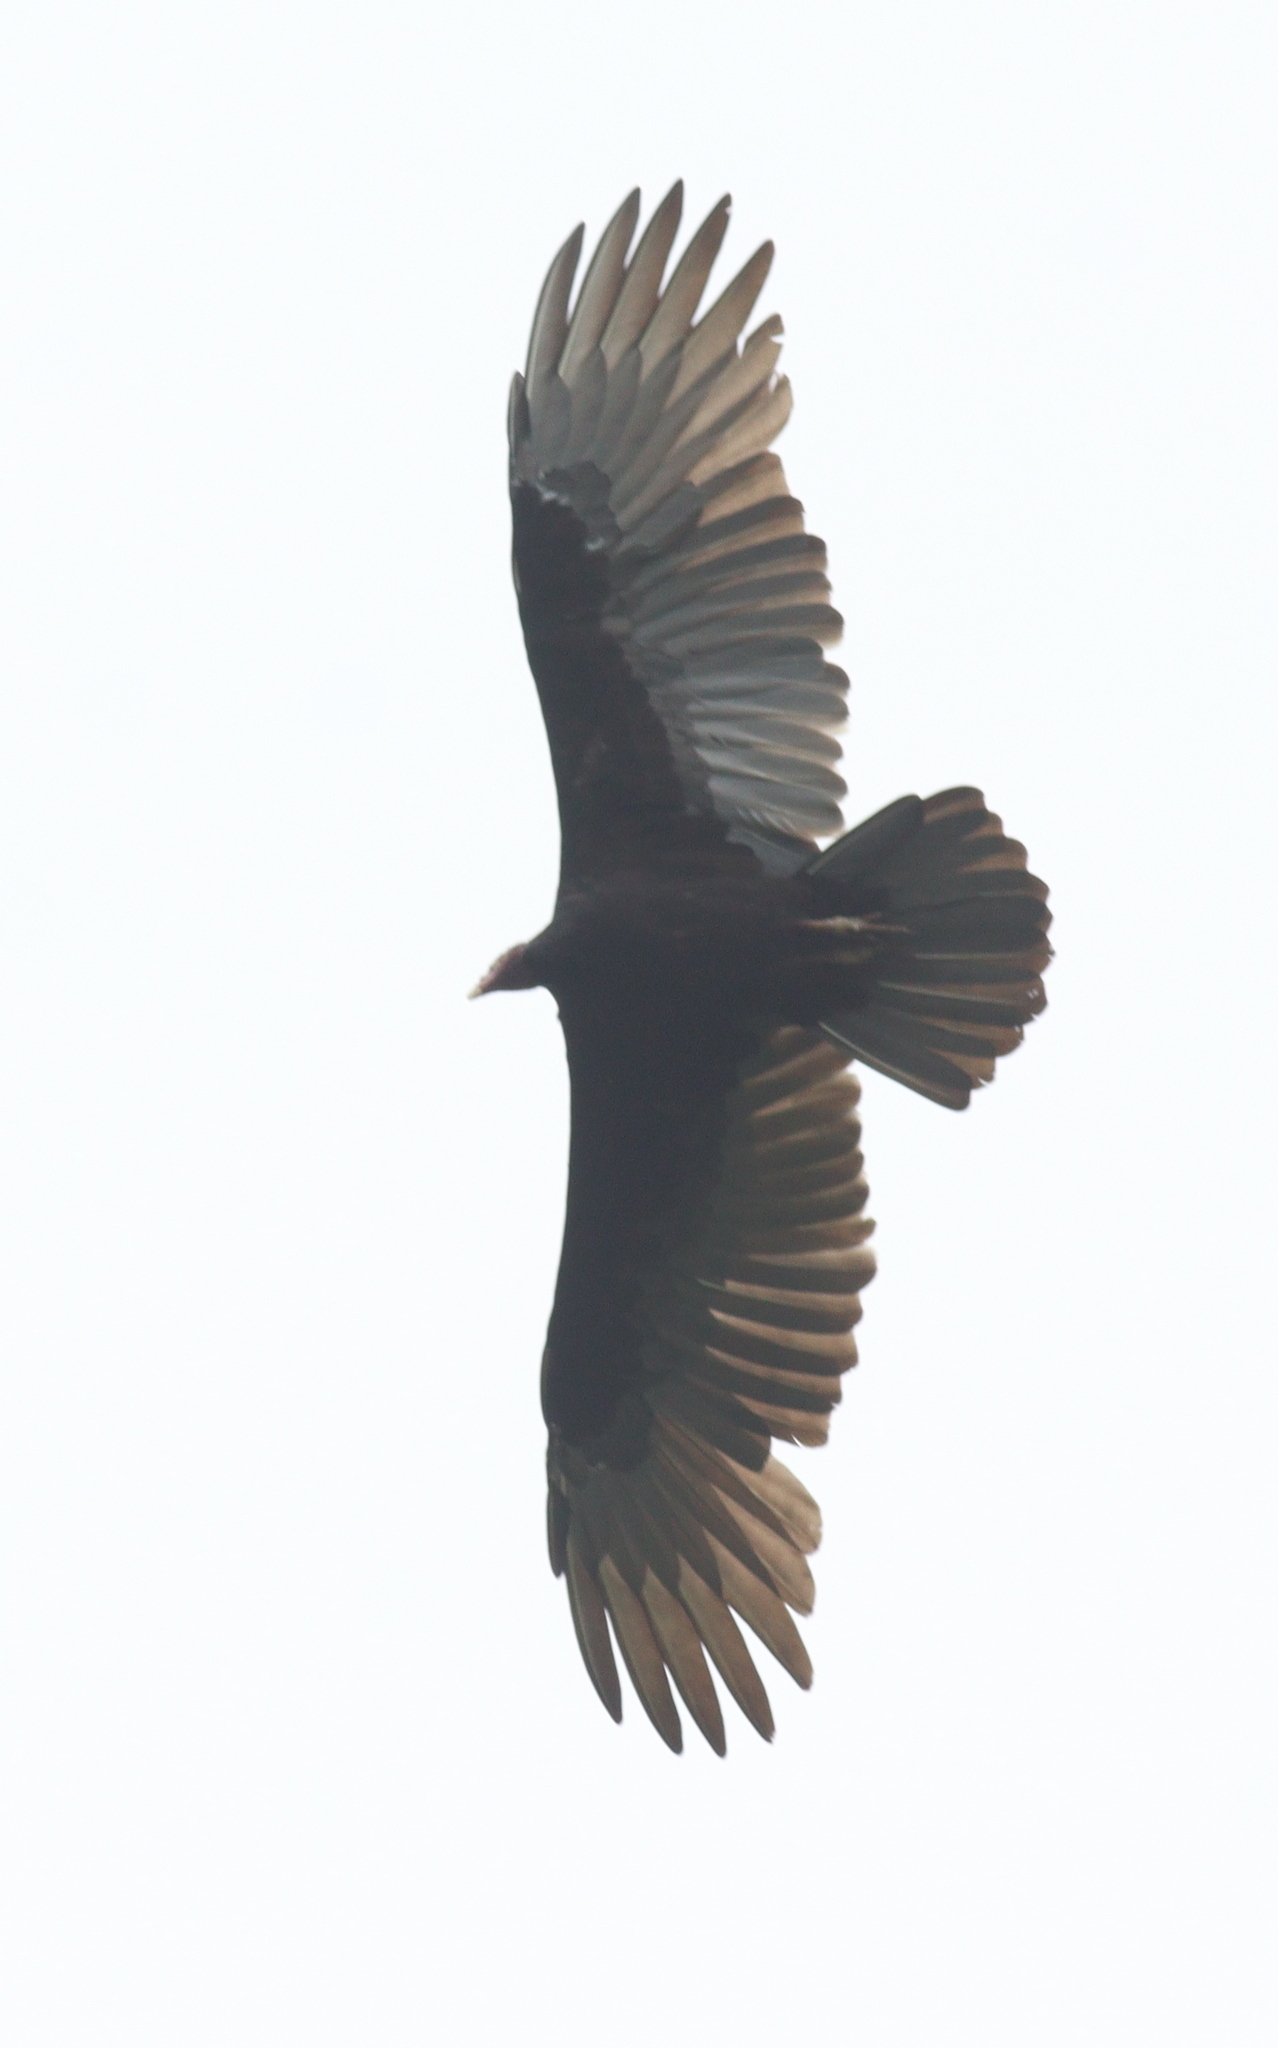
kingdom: Animalia
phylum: Chordata
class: Aves
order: Accipitriformes
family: Cathartidae
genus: Cathartes
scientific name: Cathartes aura
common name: Turkey vulture
